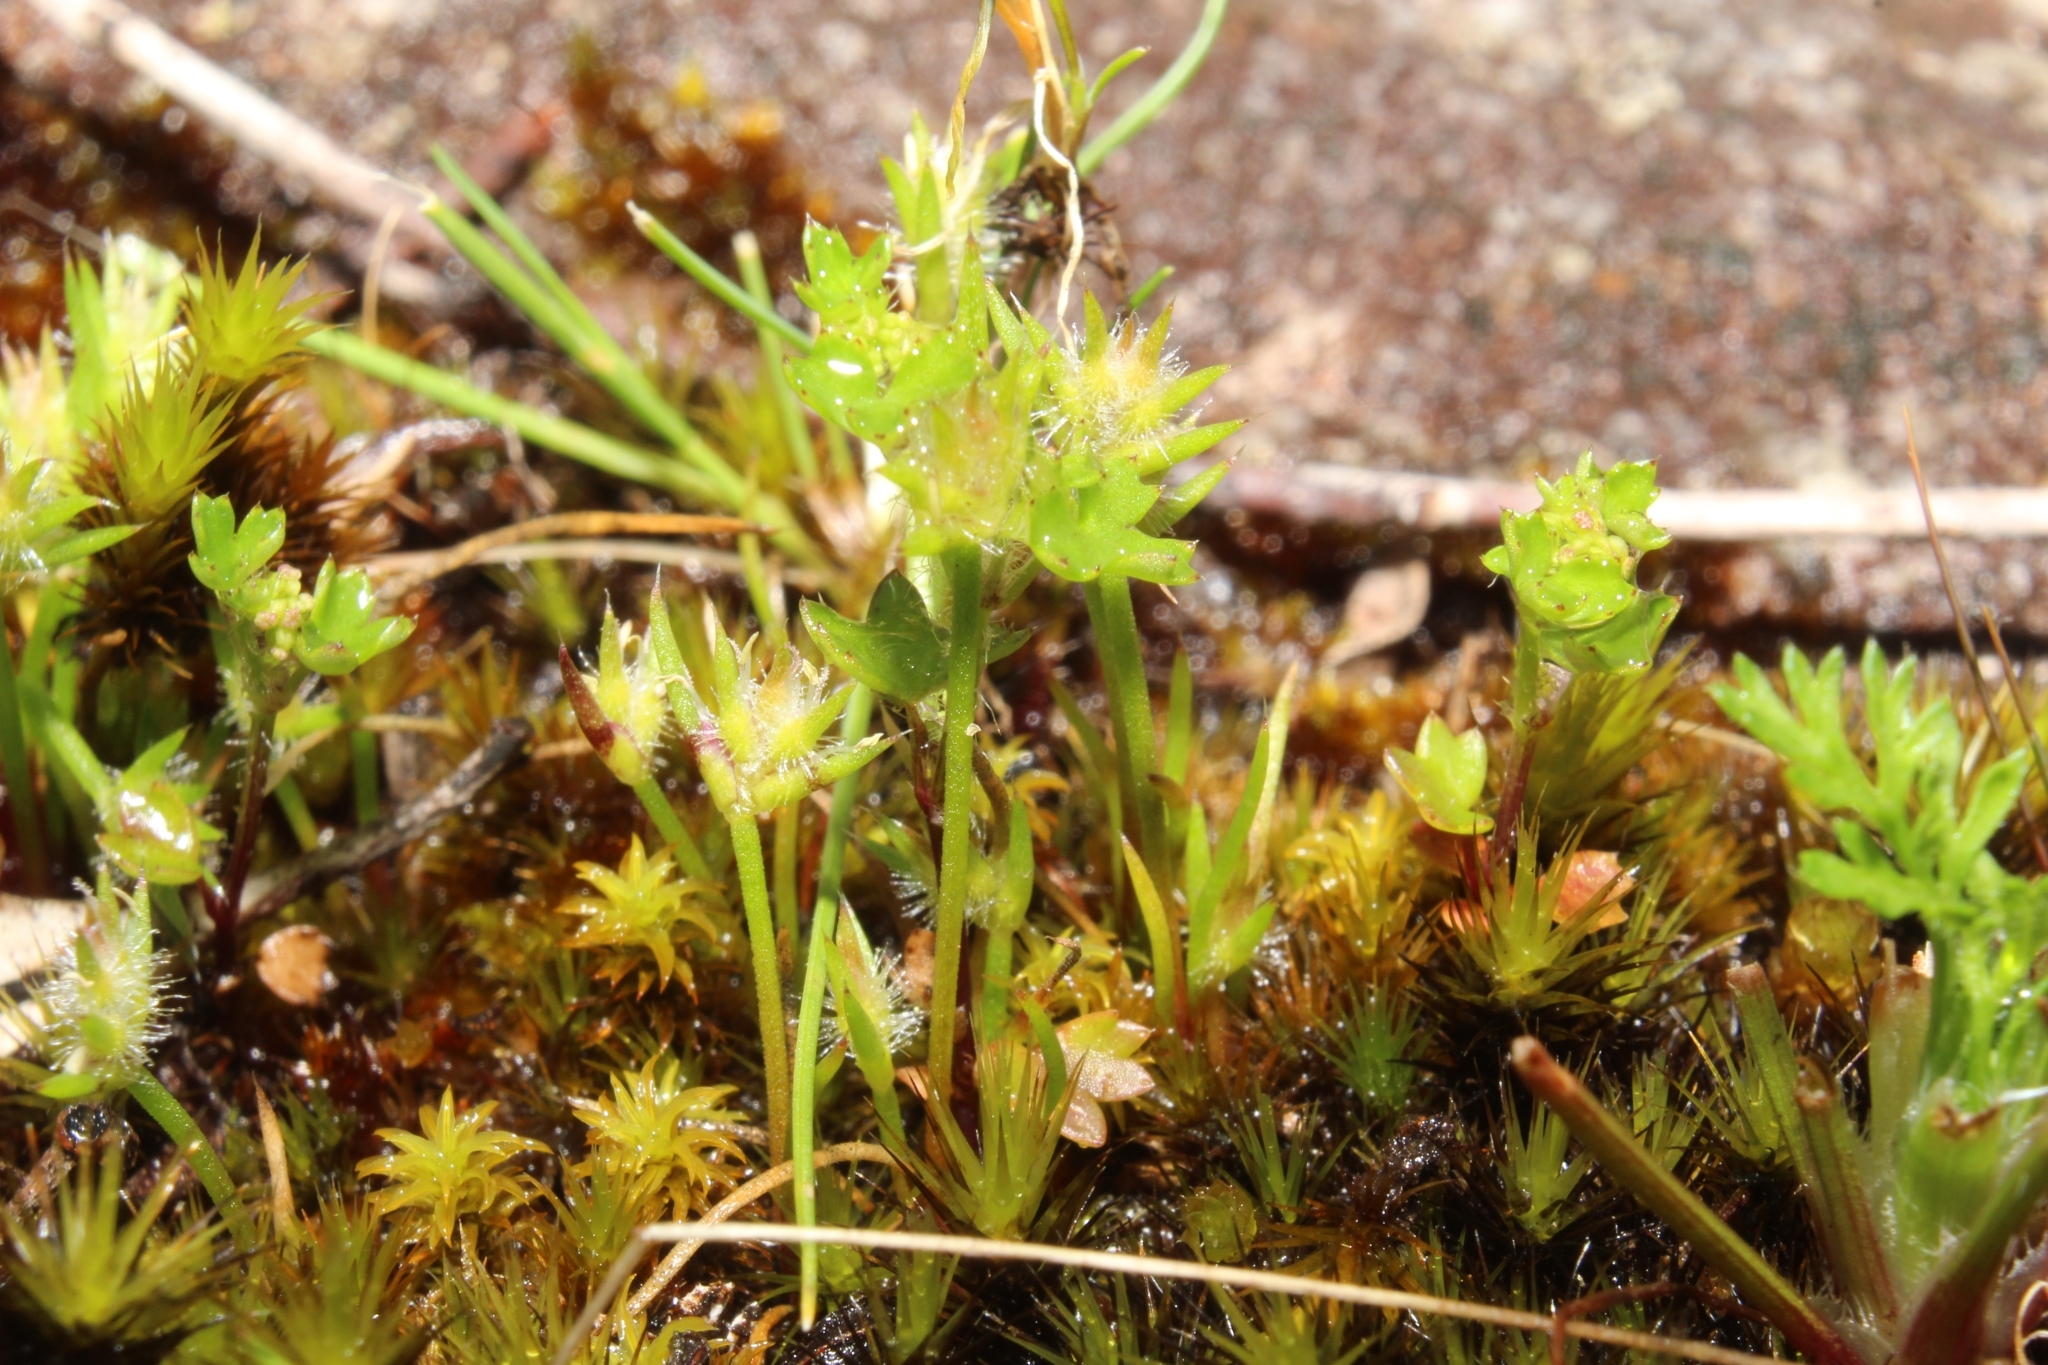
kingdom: Plantae
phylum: Tracheophyta
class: Liliopsida
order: Poales
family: Restionaceae
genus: Aphelia
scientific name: Aphelia cyperoides
